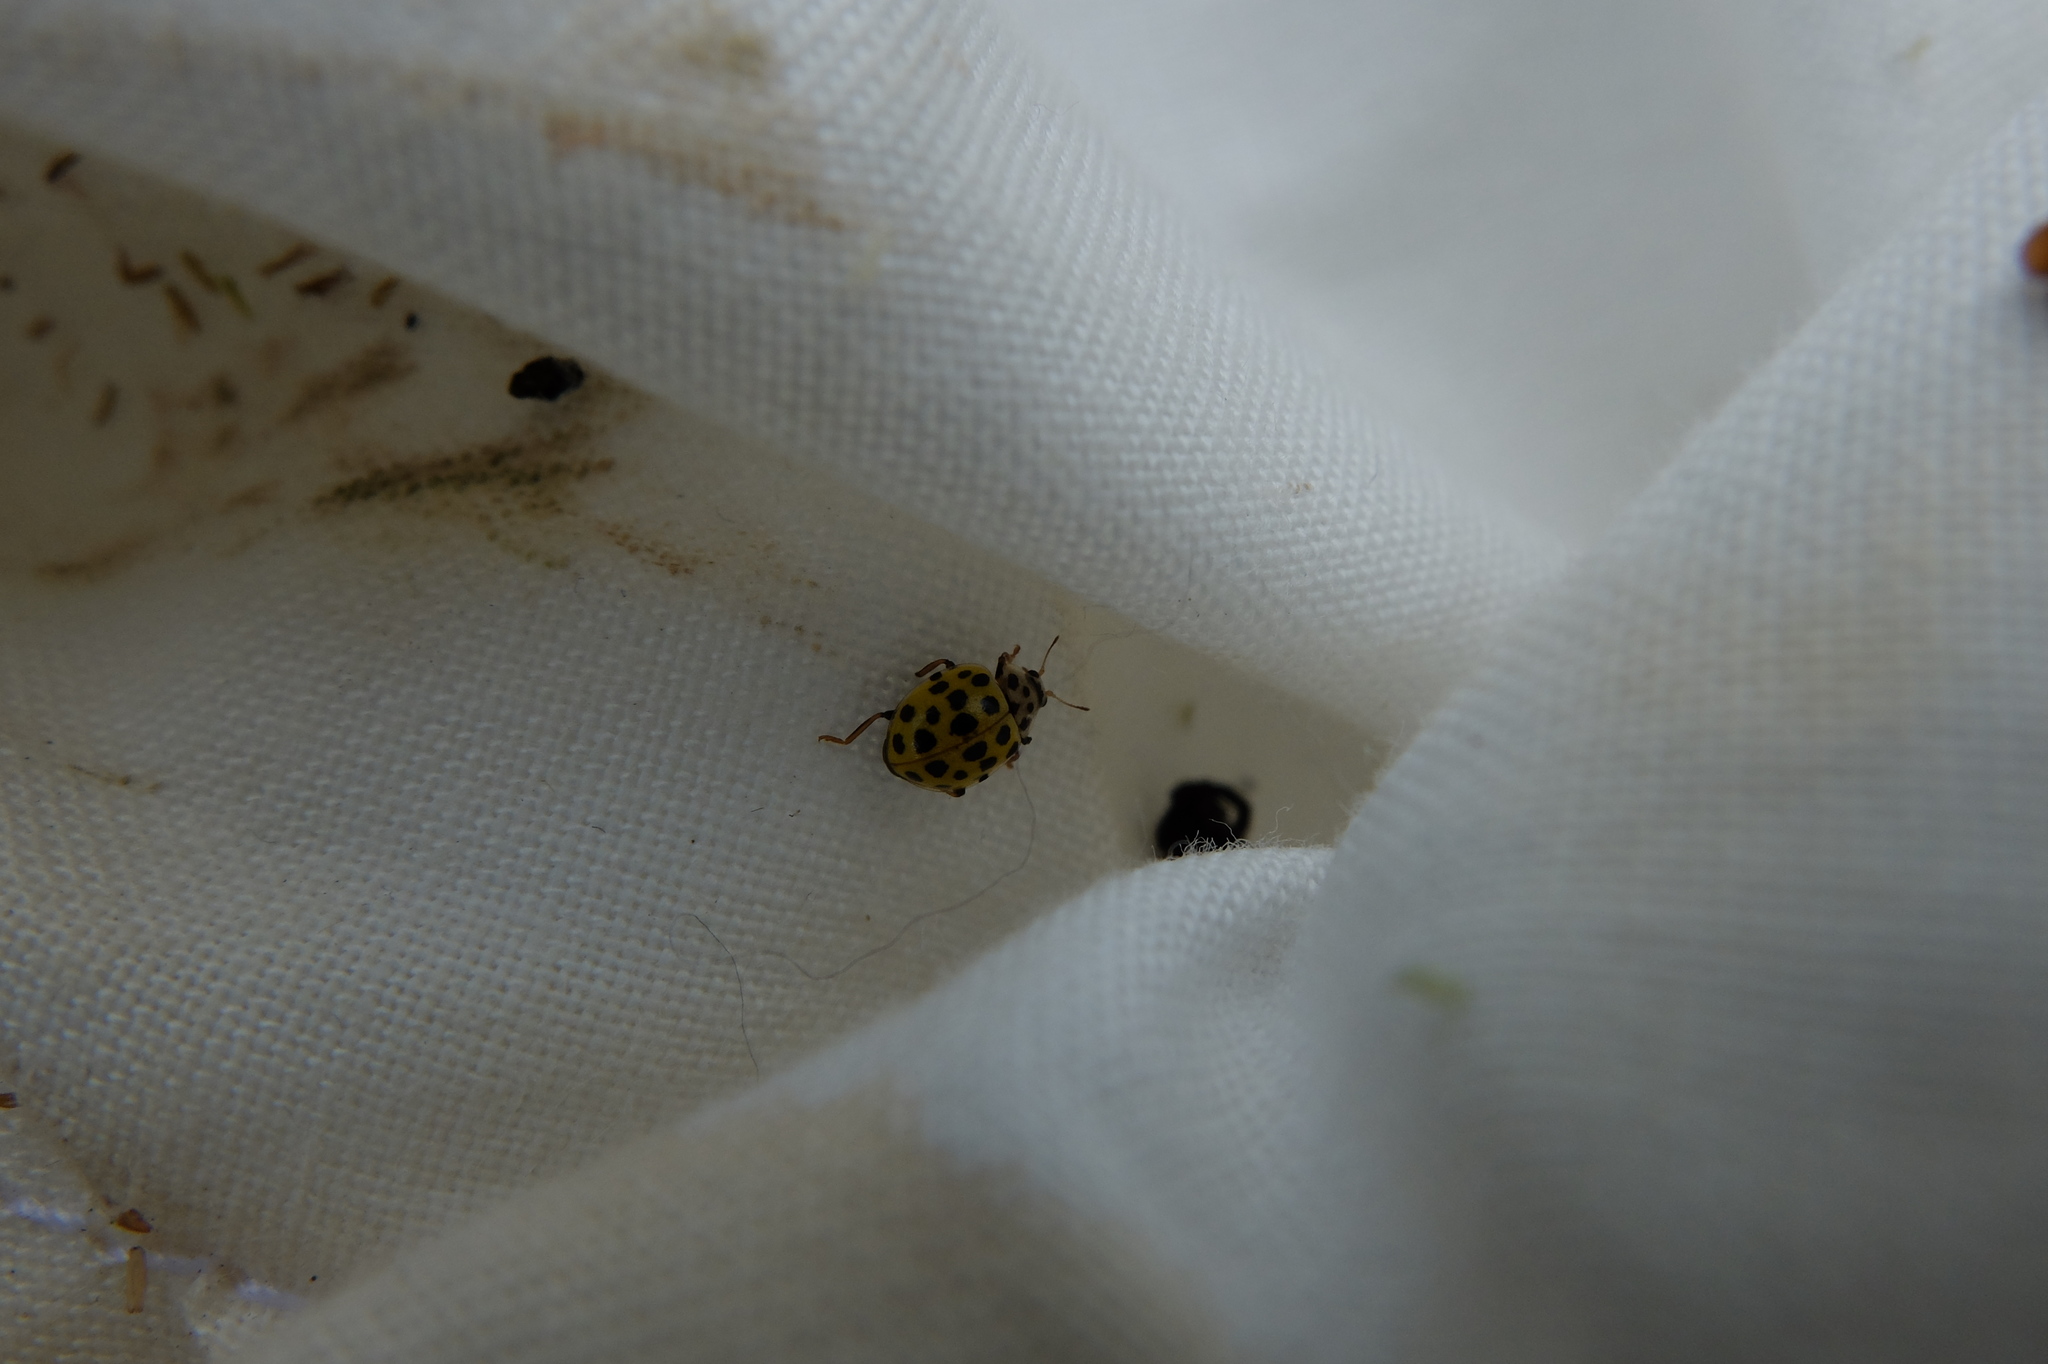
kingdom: Animalia
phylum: Arthropoda
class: Insecta
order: Coleoptera
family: Coccinellidae
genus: Psyllobora
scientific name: Psyllobora vigintiduopunctata
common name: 22-spot ladybird
